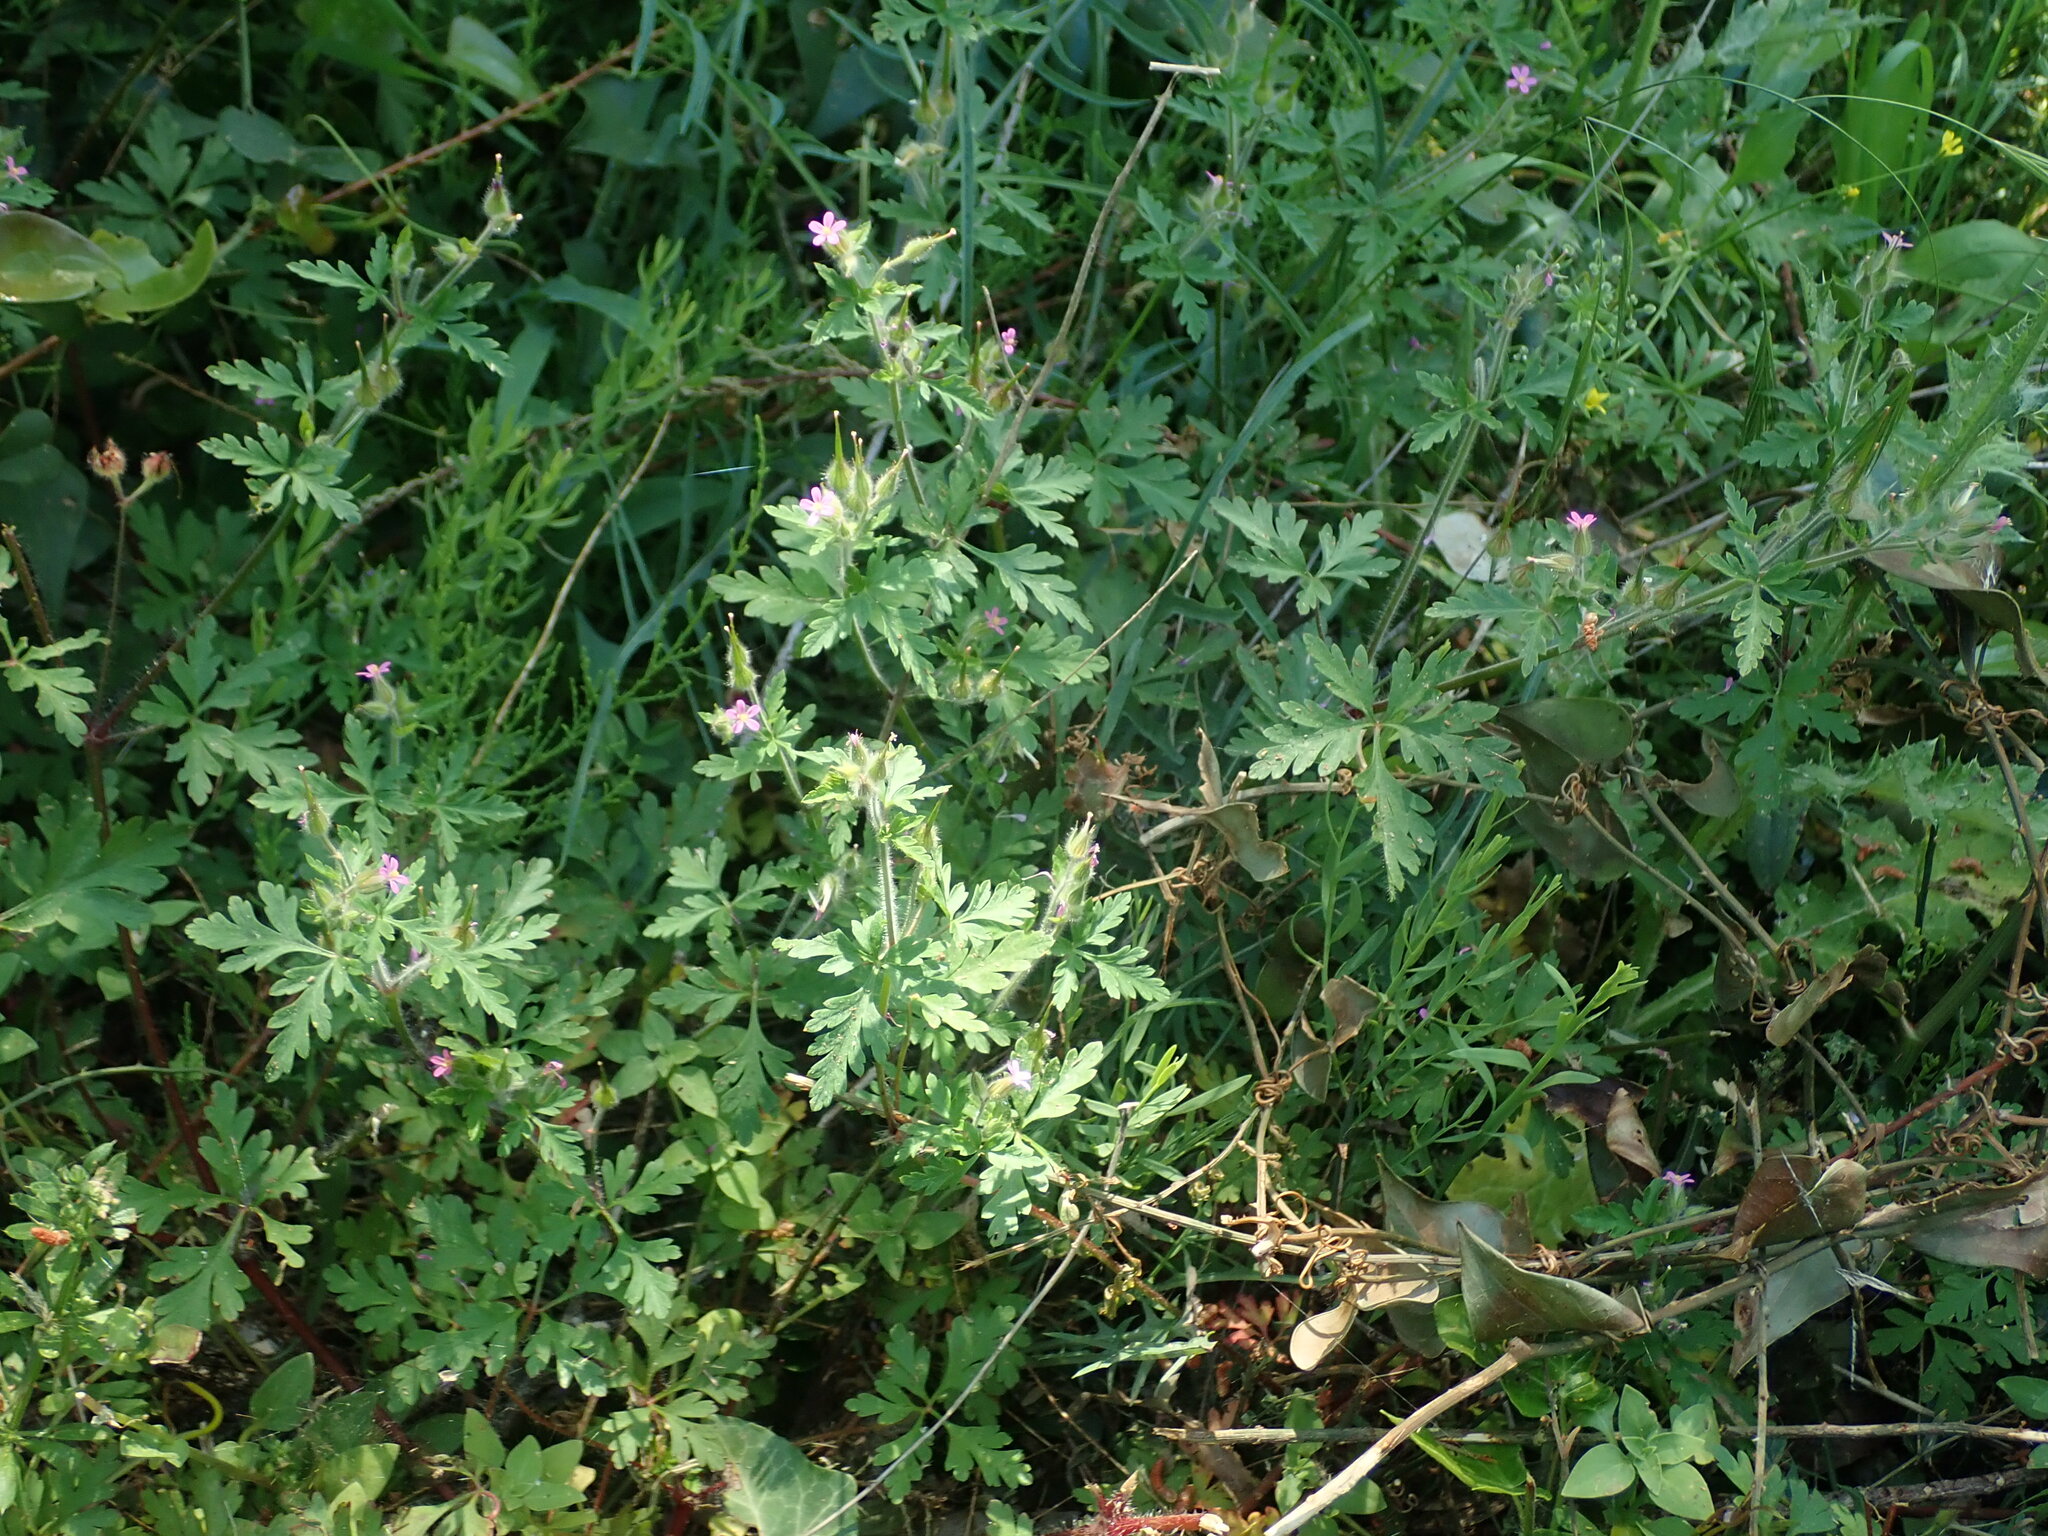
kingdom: Plantae
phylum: Tracheophyta
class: Magnoliopsida
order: Geraniales
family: Geraniaceae
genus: Geranium
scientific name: Geranium purpureum
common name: Little-robin
